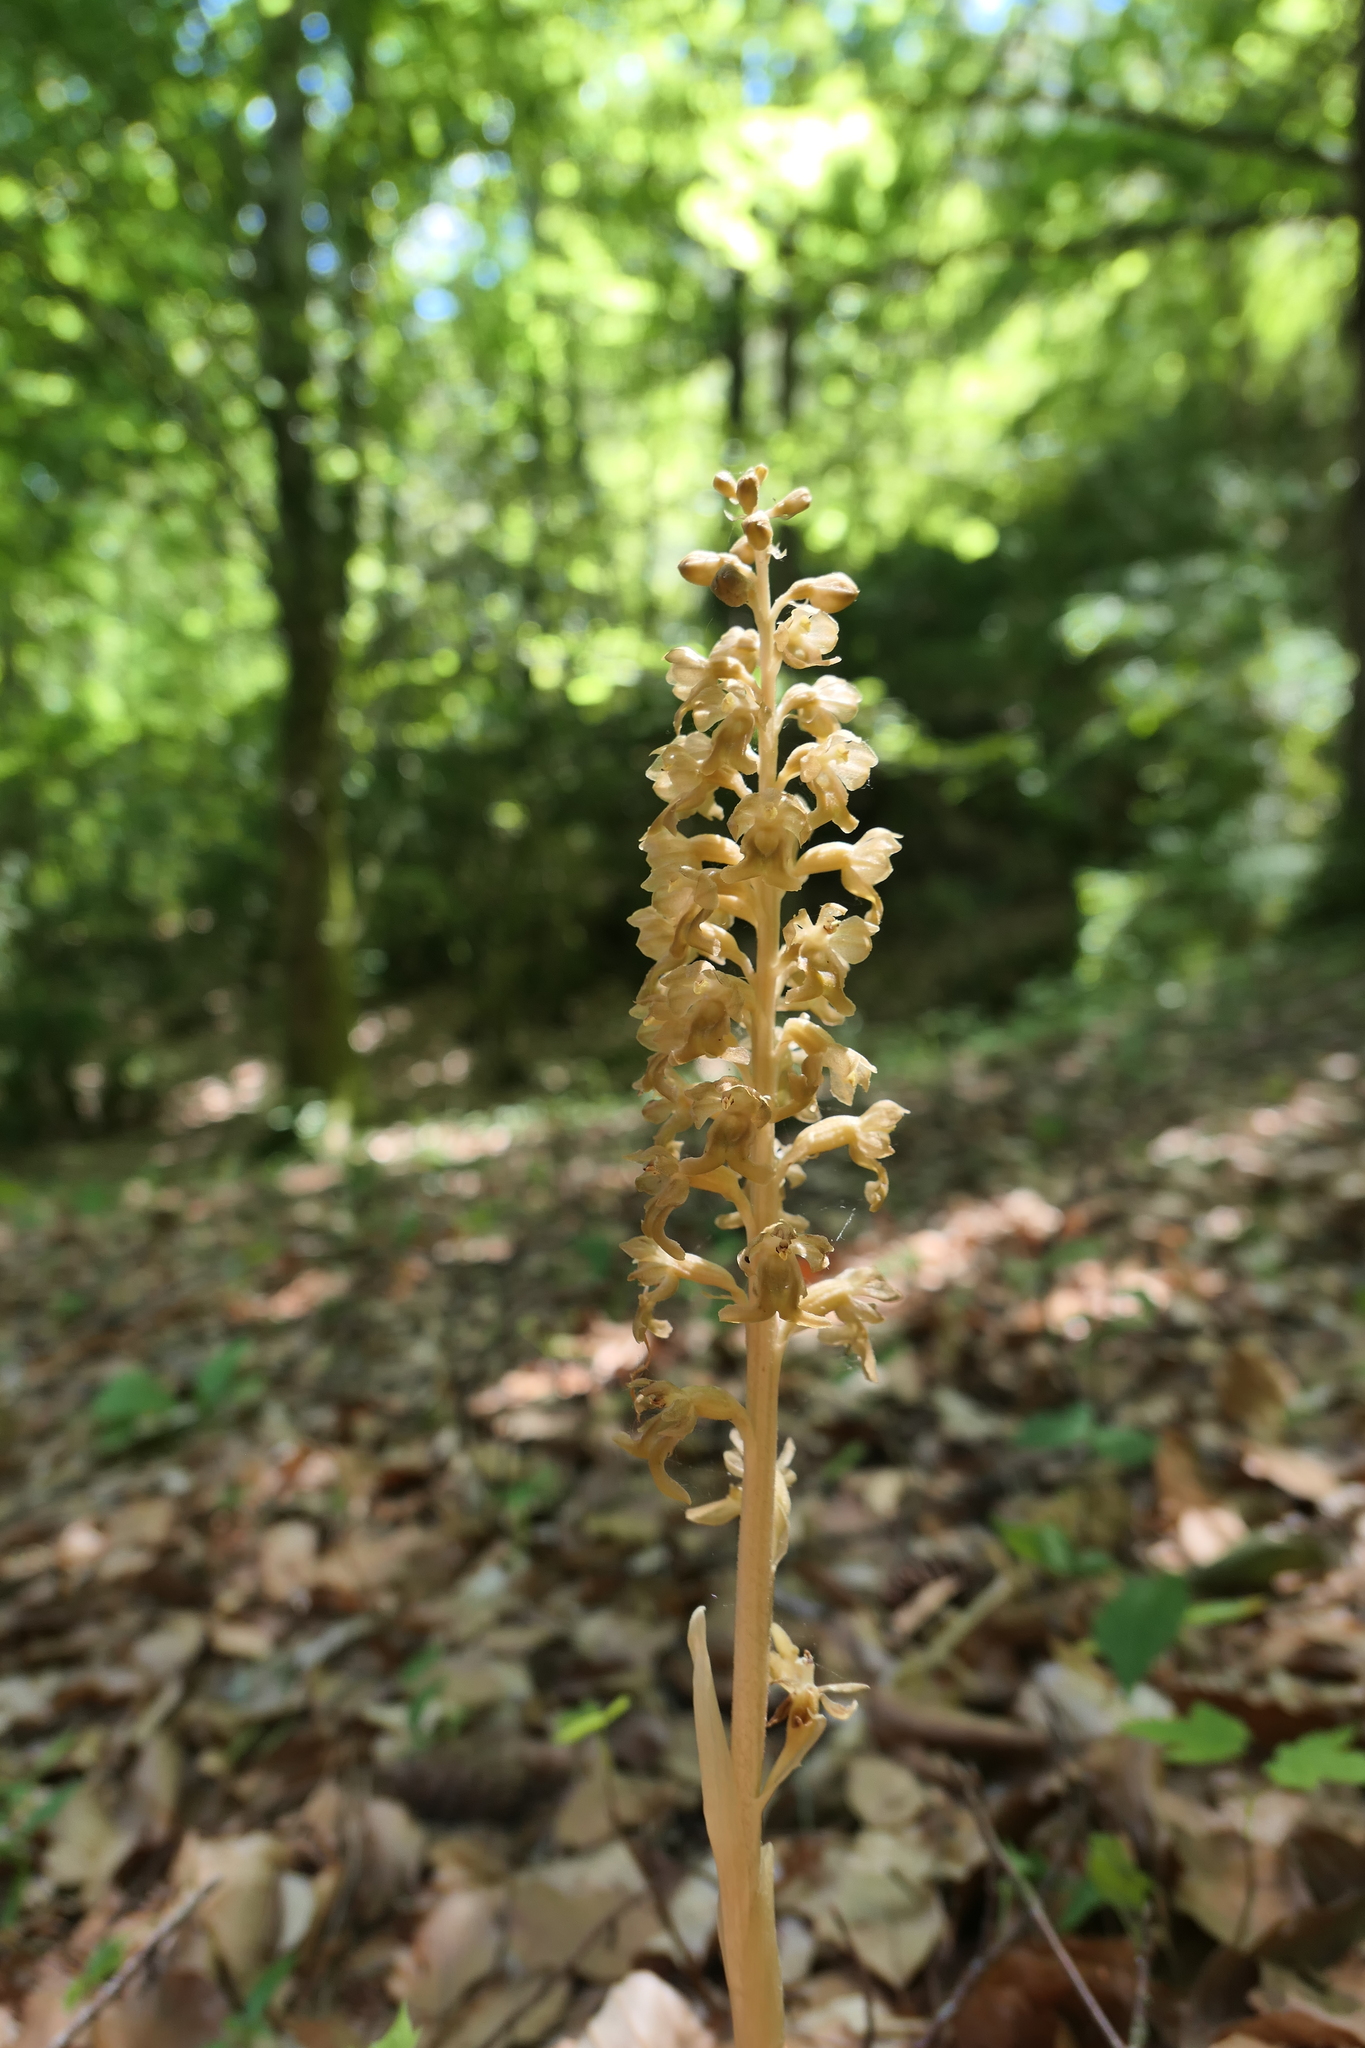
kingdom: Plantae
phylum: Tracheophyta
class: Liliopsida
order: Asparagales
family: Orchidaceae
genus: Neottia
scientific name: Neottia nidus-avis
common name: Bird's-nest orchid
